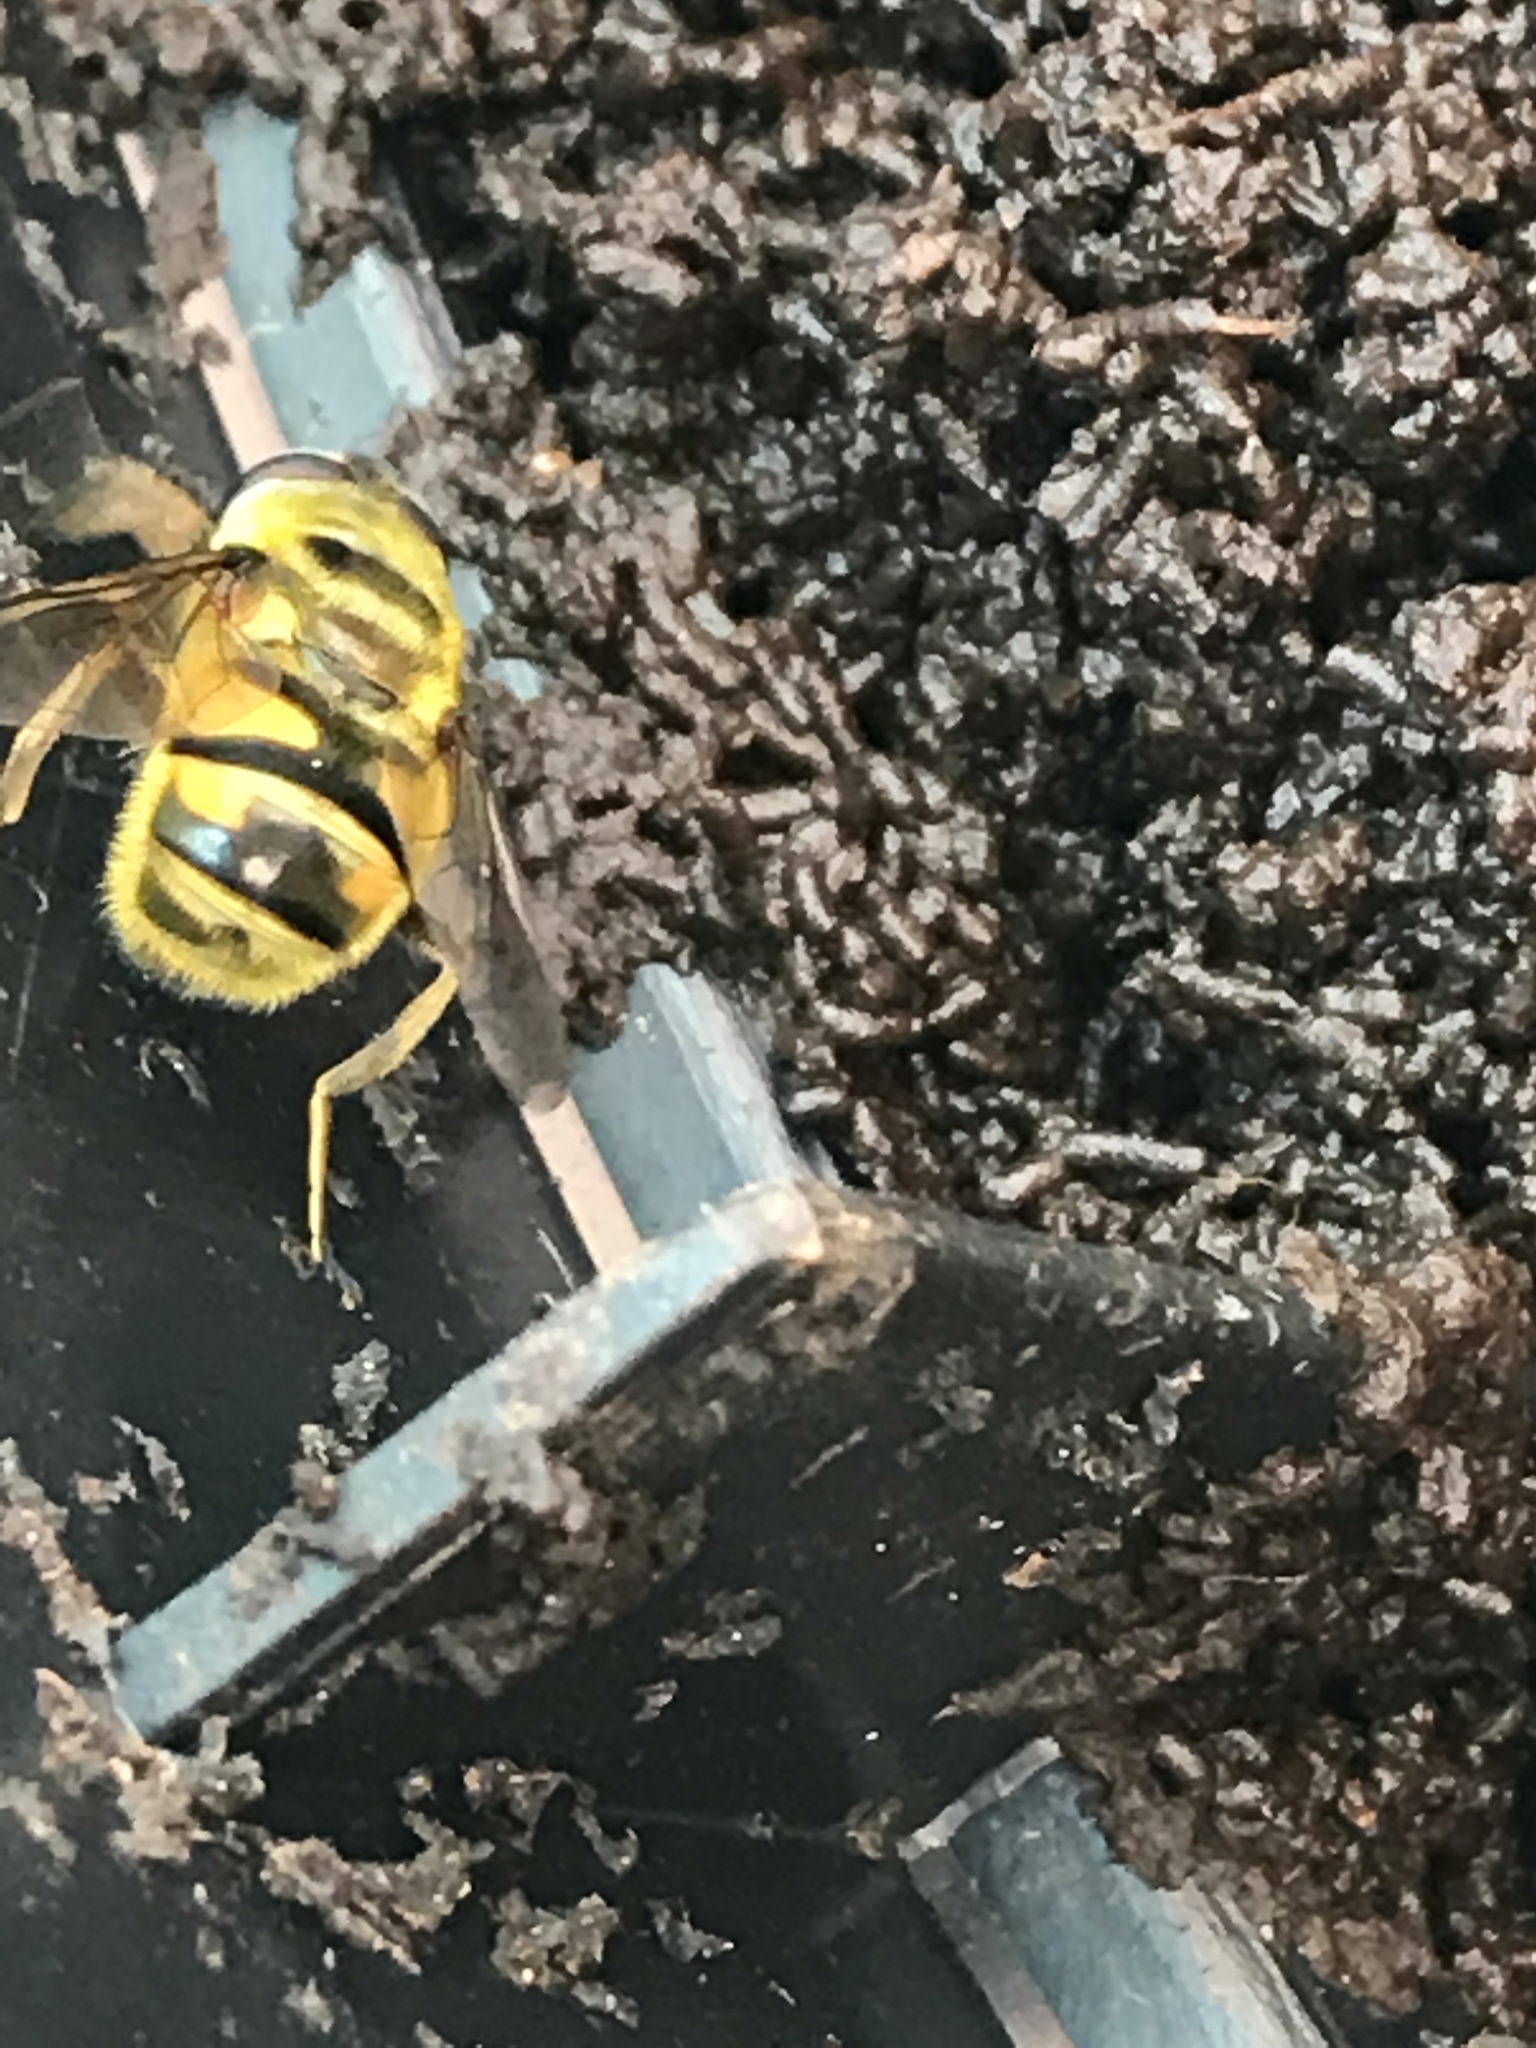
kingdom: Animalia
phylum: Arthropoda
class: Insecta
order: Diptera
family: Syrphidae
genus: Myathropa
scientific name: Myathropa florea
